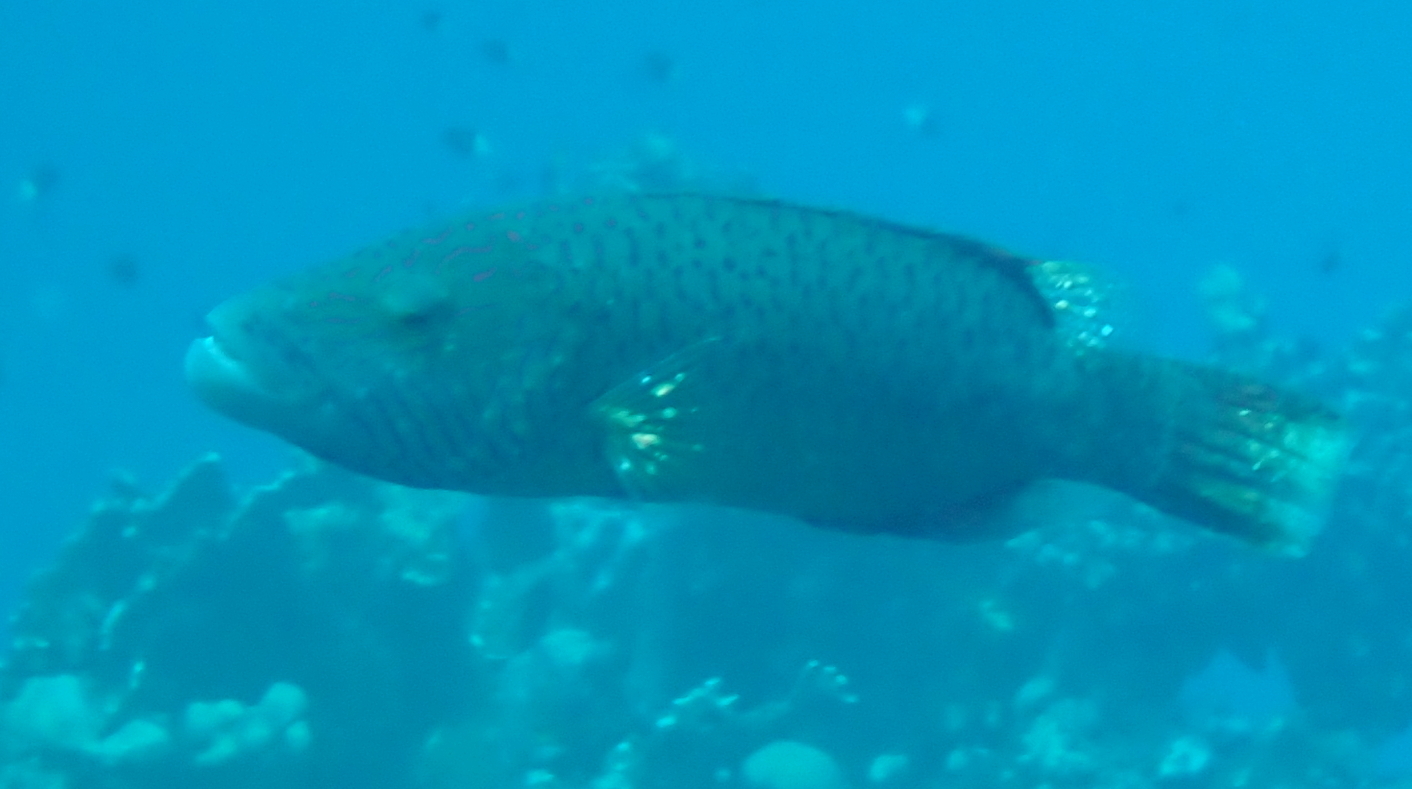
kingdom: Animalia
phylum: Chordata
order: Perciformes
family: Labridae
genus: Oxycheilinus
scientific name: Oxycheilinus digramma
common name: Bandcheek wrasse
